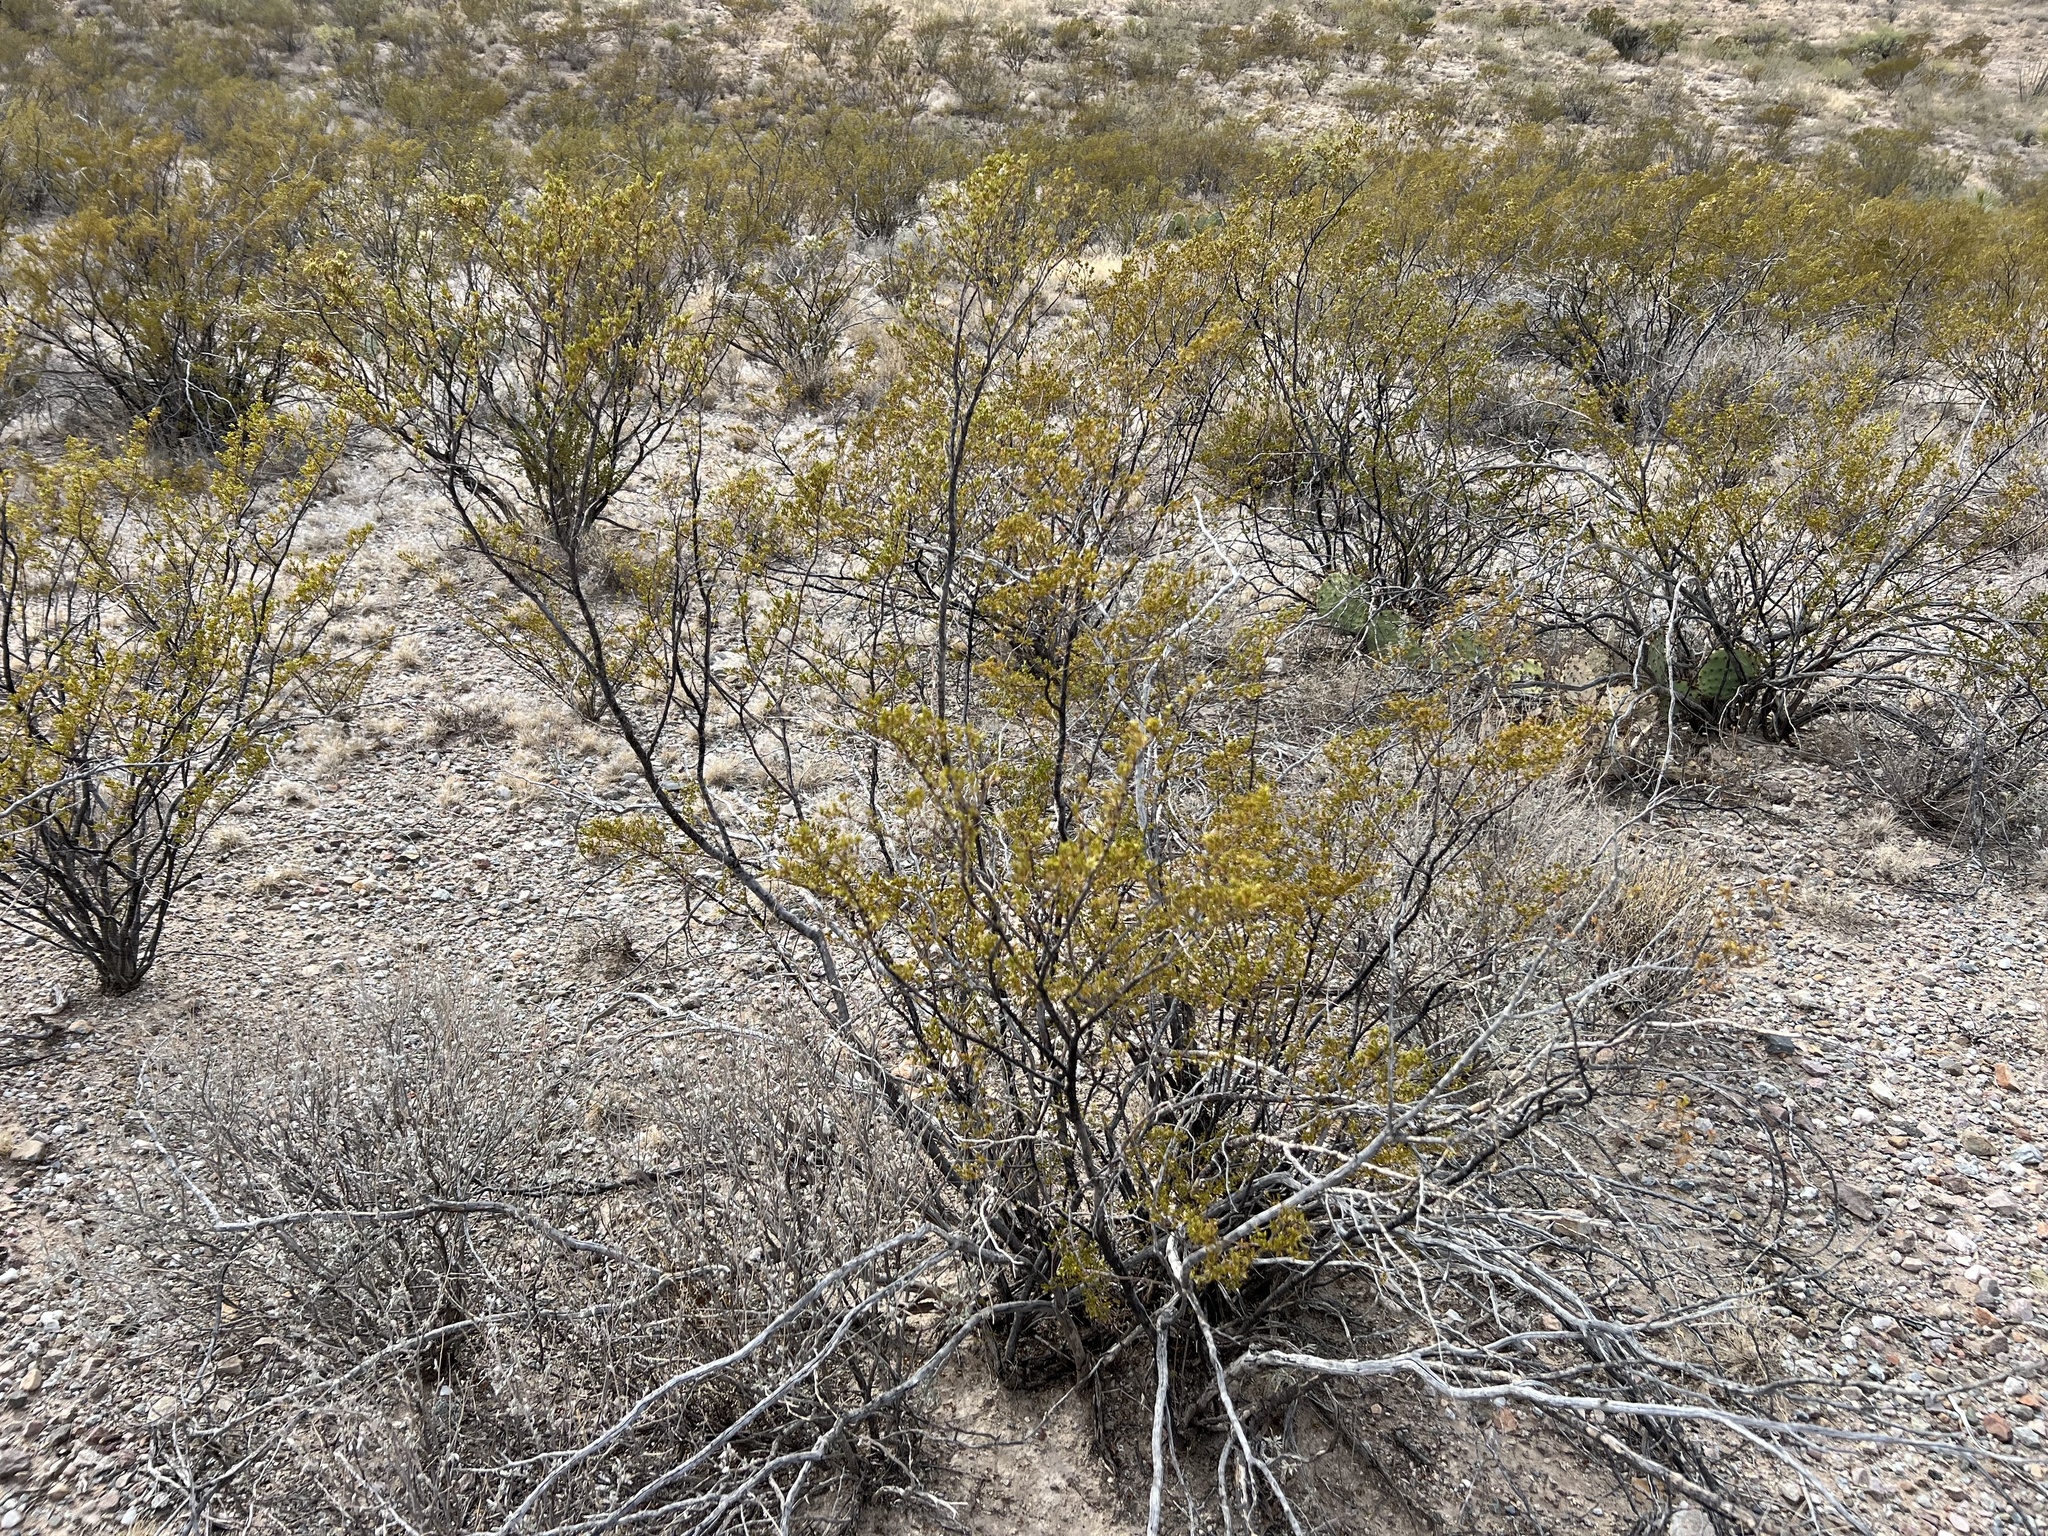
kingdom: Plantae
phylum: Tracheophyta
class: Magnoliopsida
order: Zygophyllales
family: Zygophyllaceae
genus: Larrea
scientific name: Larrea tridentata
